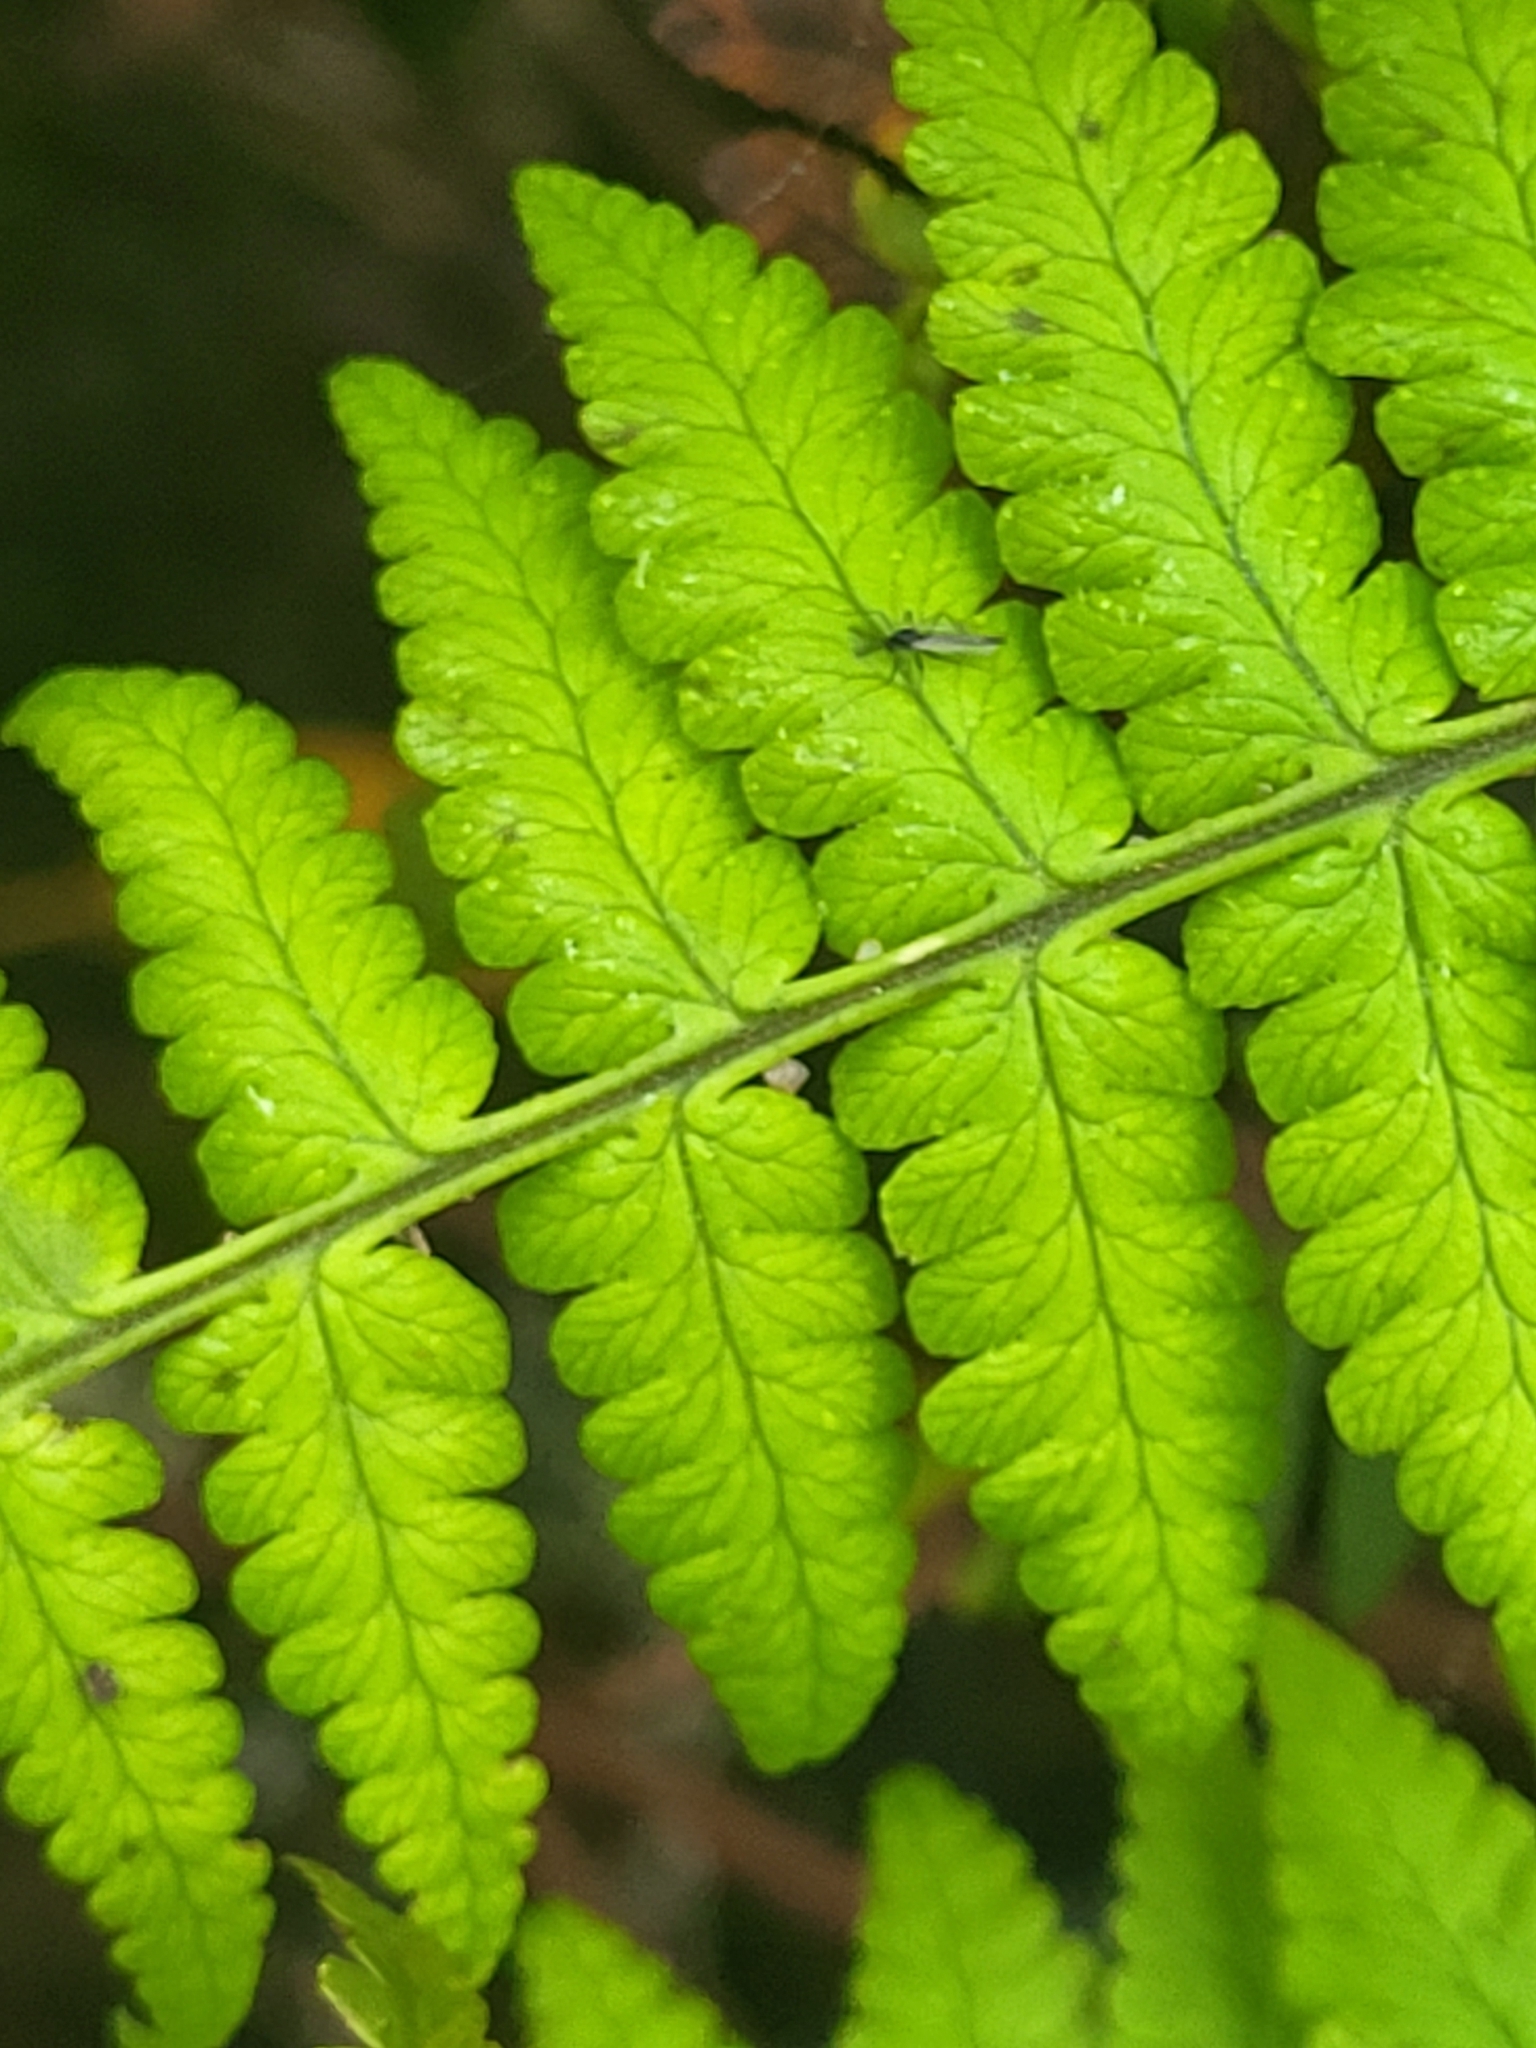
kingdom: Plantae
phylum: Tracheophyta
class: Polypodiopsida
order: Polypodiales
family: Dryopteridaceae
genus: Dryopteris
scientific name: Dryopteris oligodonta
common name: Canarian male-fern
